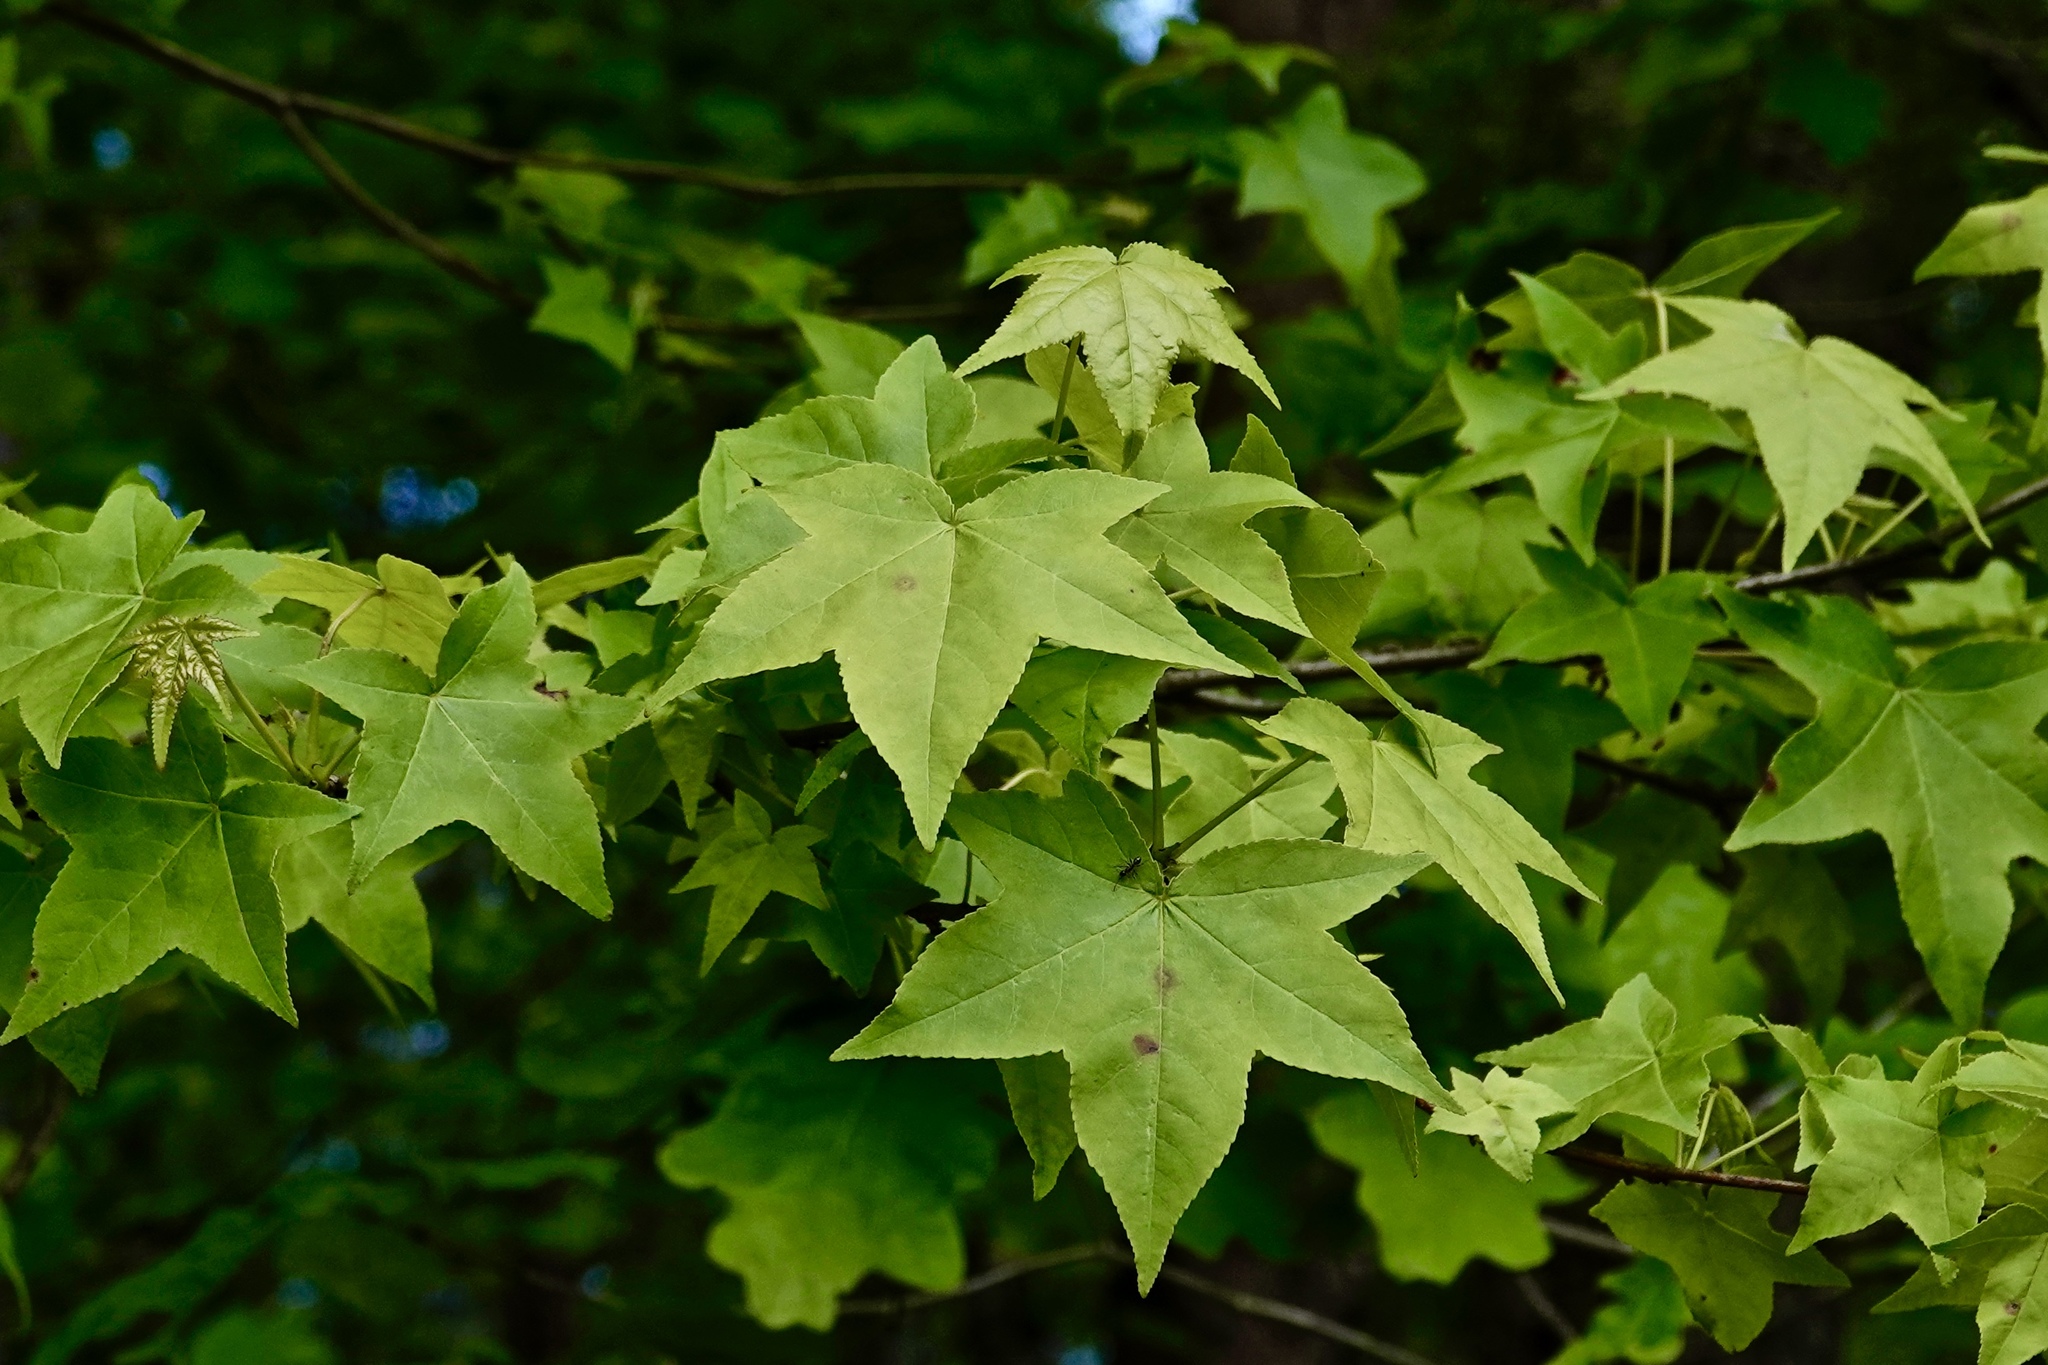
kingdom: Plantae
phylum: Tracheophyta
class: Magnoliopsida
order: Saxifragales
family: Altingiaceae
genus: Liquidambar
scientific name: Liquidambar styraciflua
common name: Sweet gum
